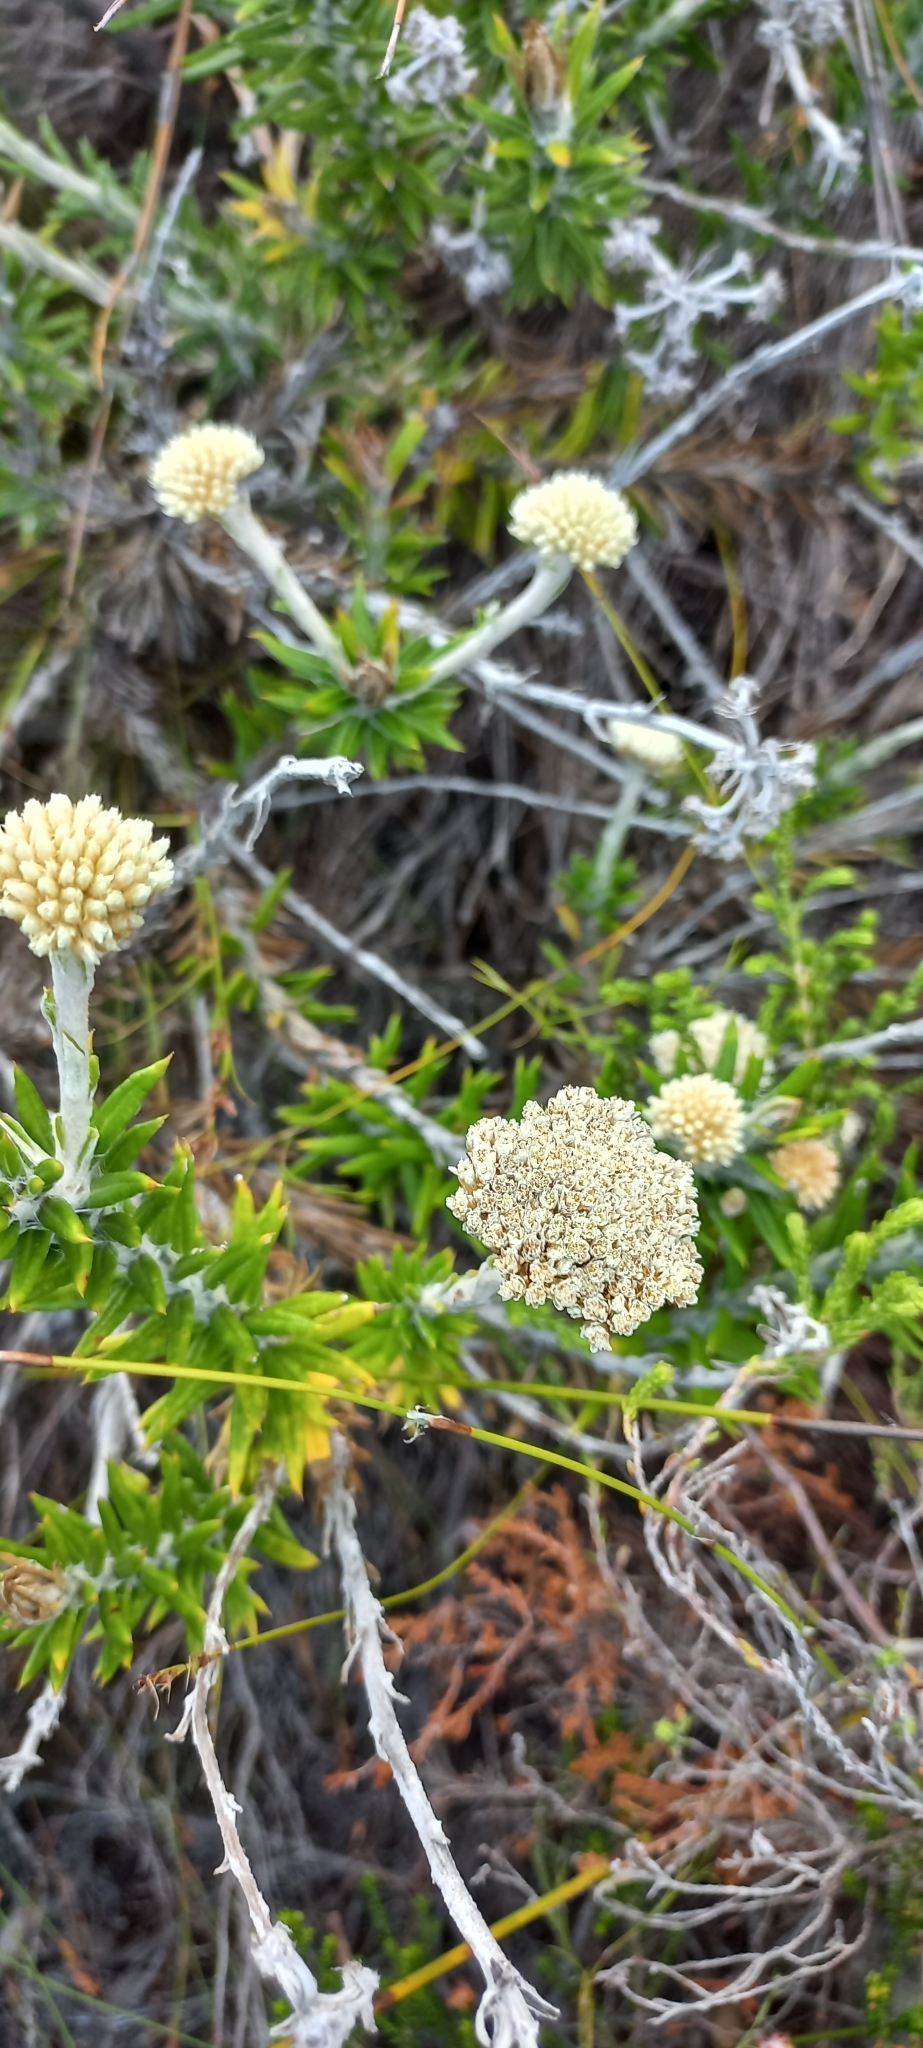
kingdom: Plantae
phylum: Tracheophyta
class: Magnoliopsida
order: Asterales
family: Asteraceae
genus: Anaxeton
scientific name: Anaxeton asperum
